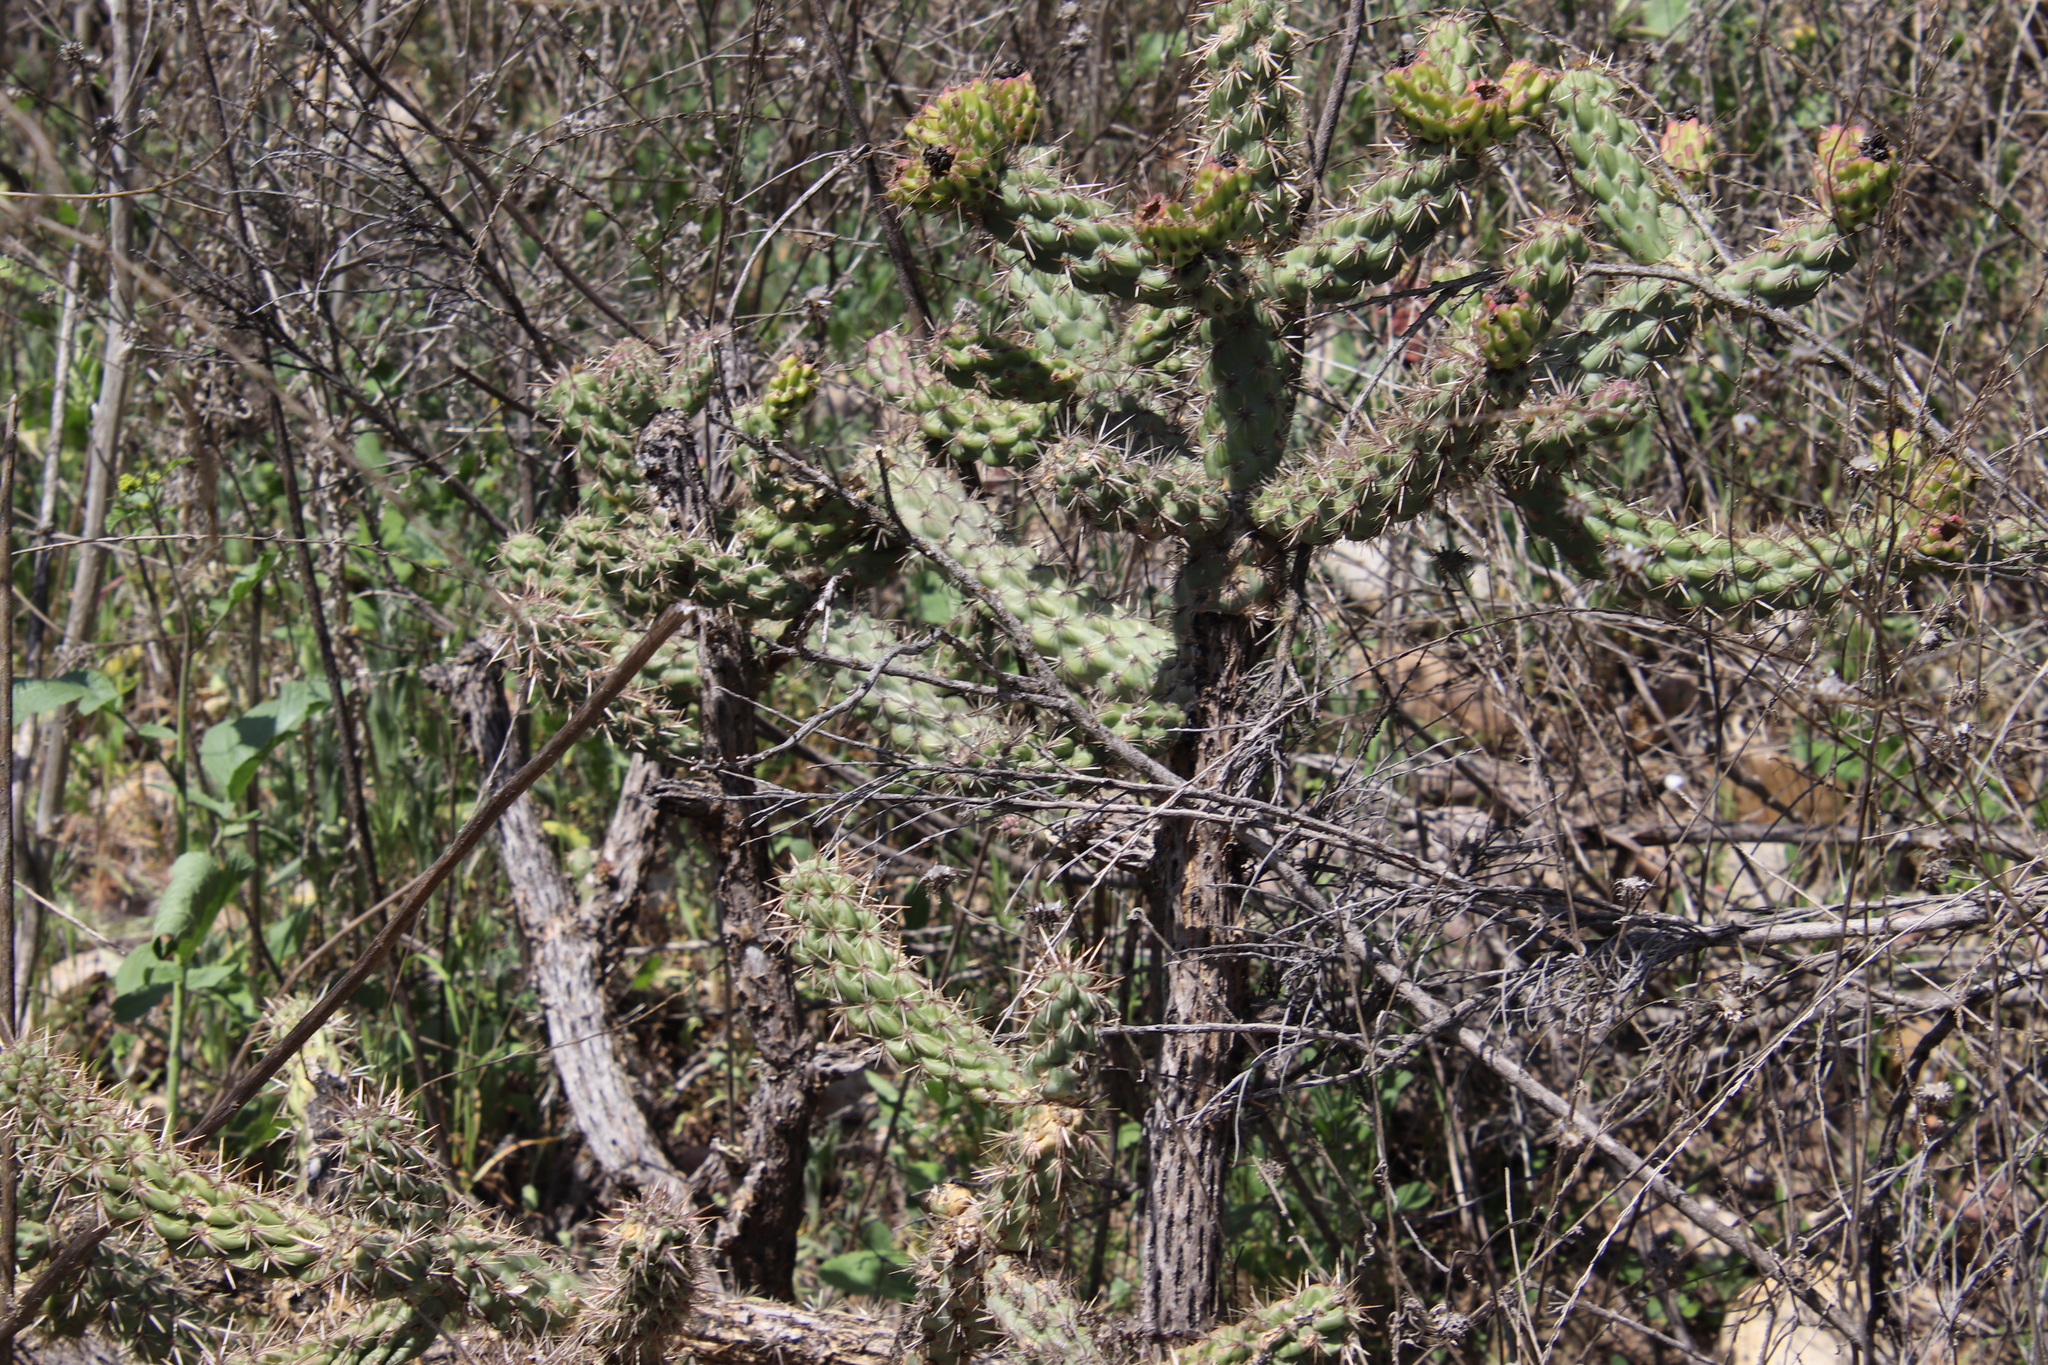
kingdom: Plantae
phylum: Tracheophyta
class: Magnoliopsida
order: Caryophyllales
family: Cactaceae
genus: Cylindropuntia
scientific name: Cylindropuntia prolifera
